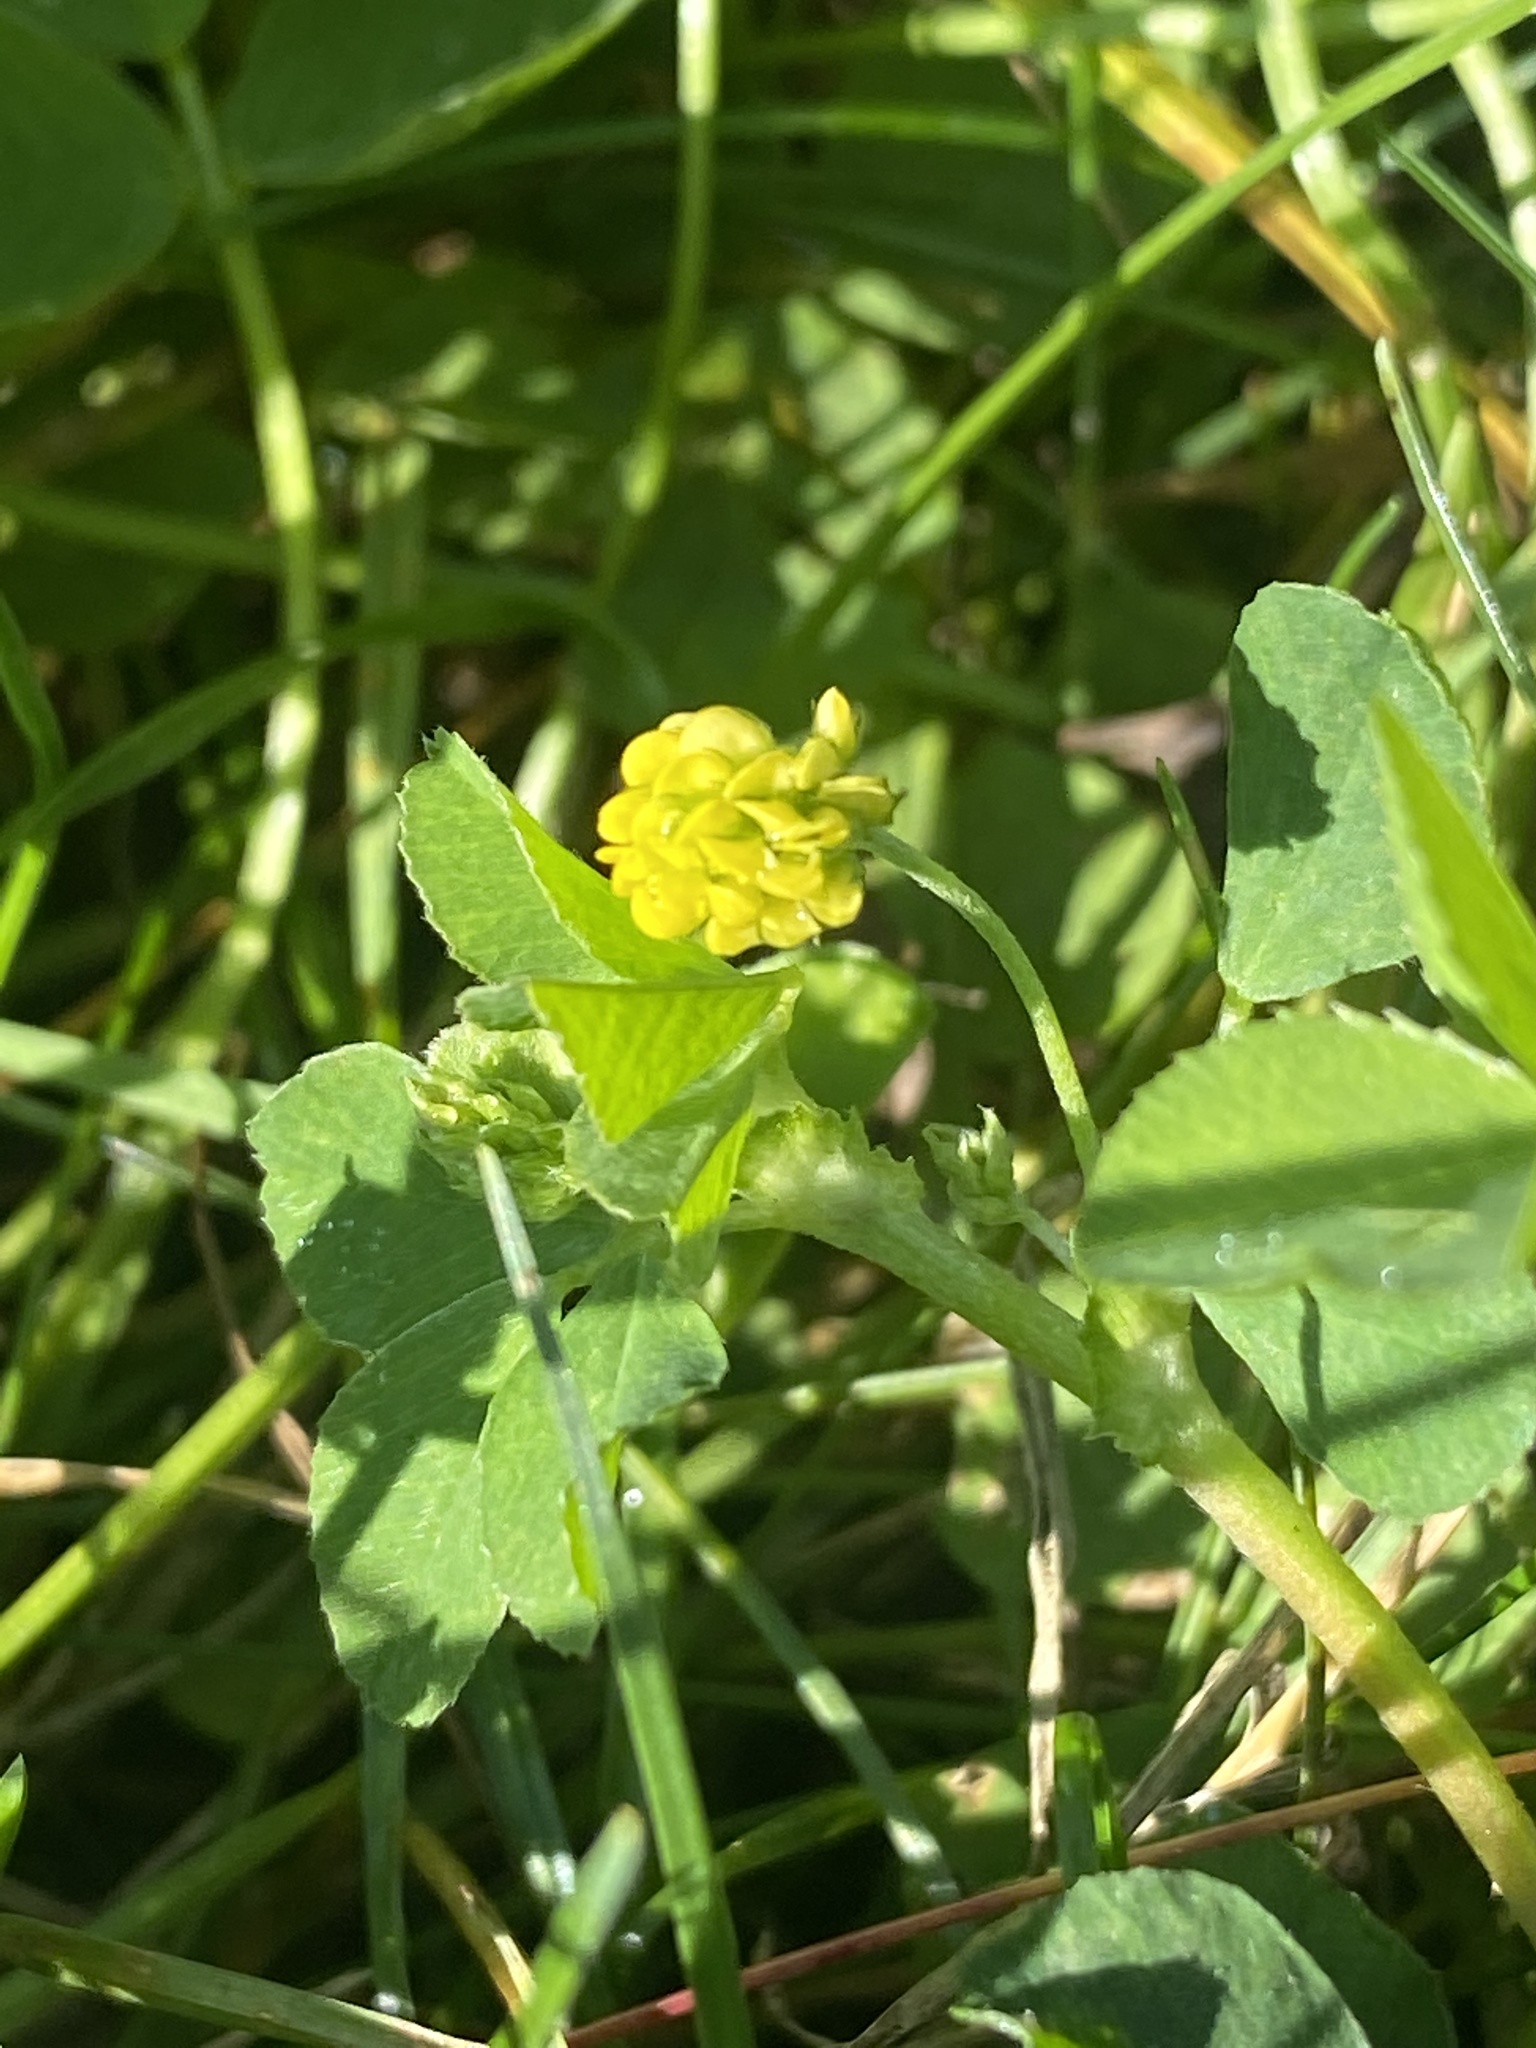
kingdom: Plantae
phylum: Tracheophyta
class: Magnoliopsida
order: Fabales
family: Fabaceae
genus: Medicago
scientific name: Medicago lupulina
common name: Black medick
